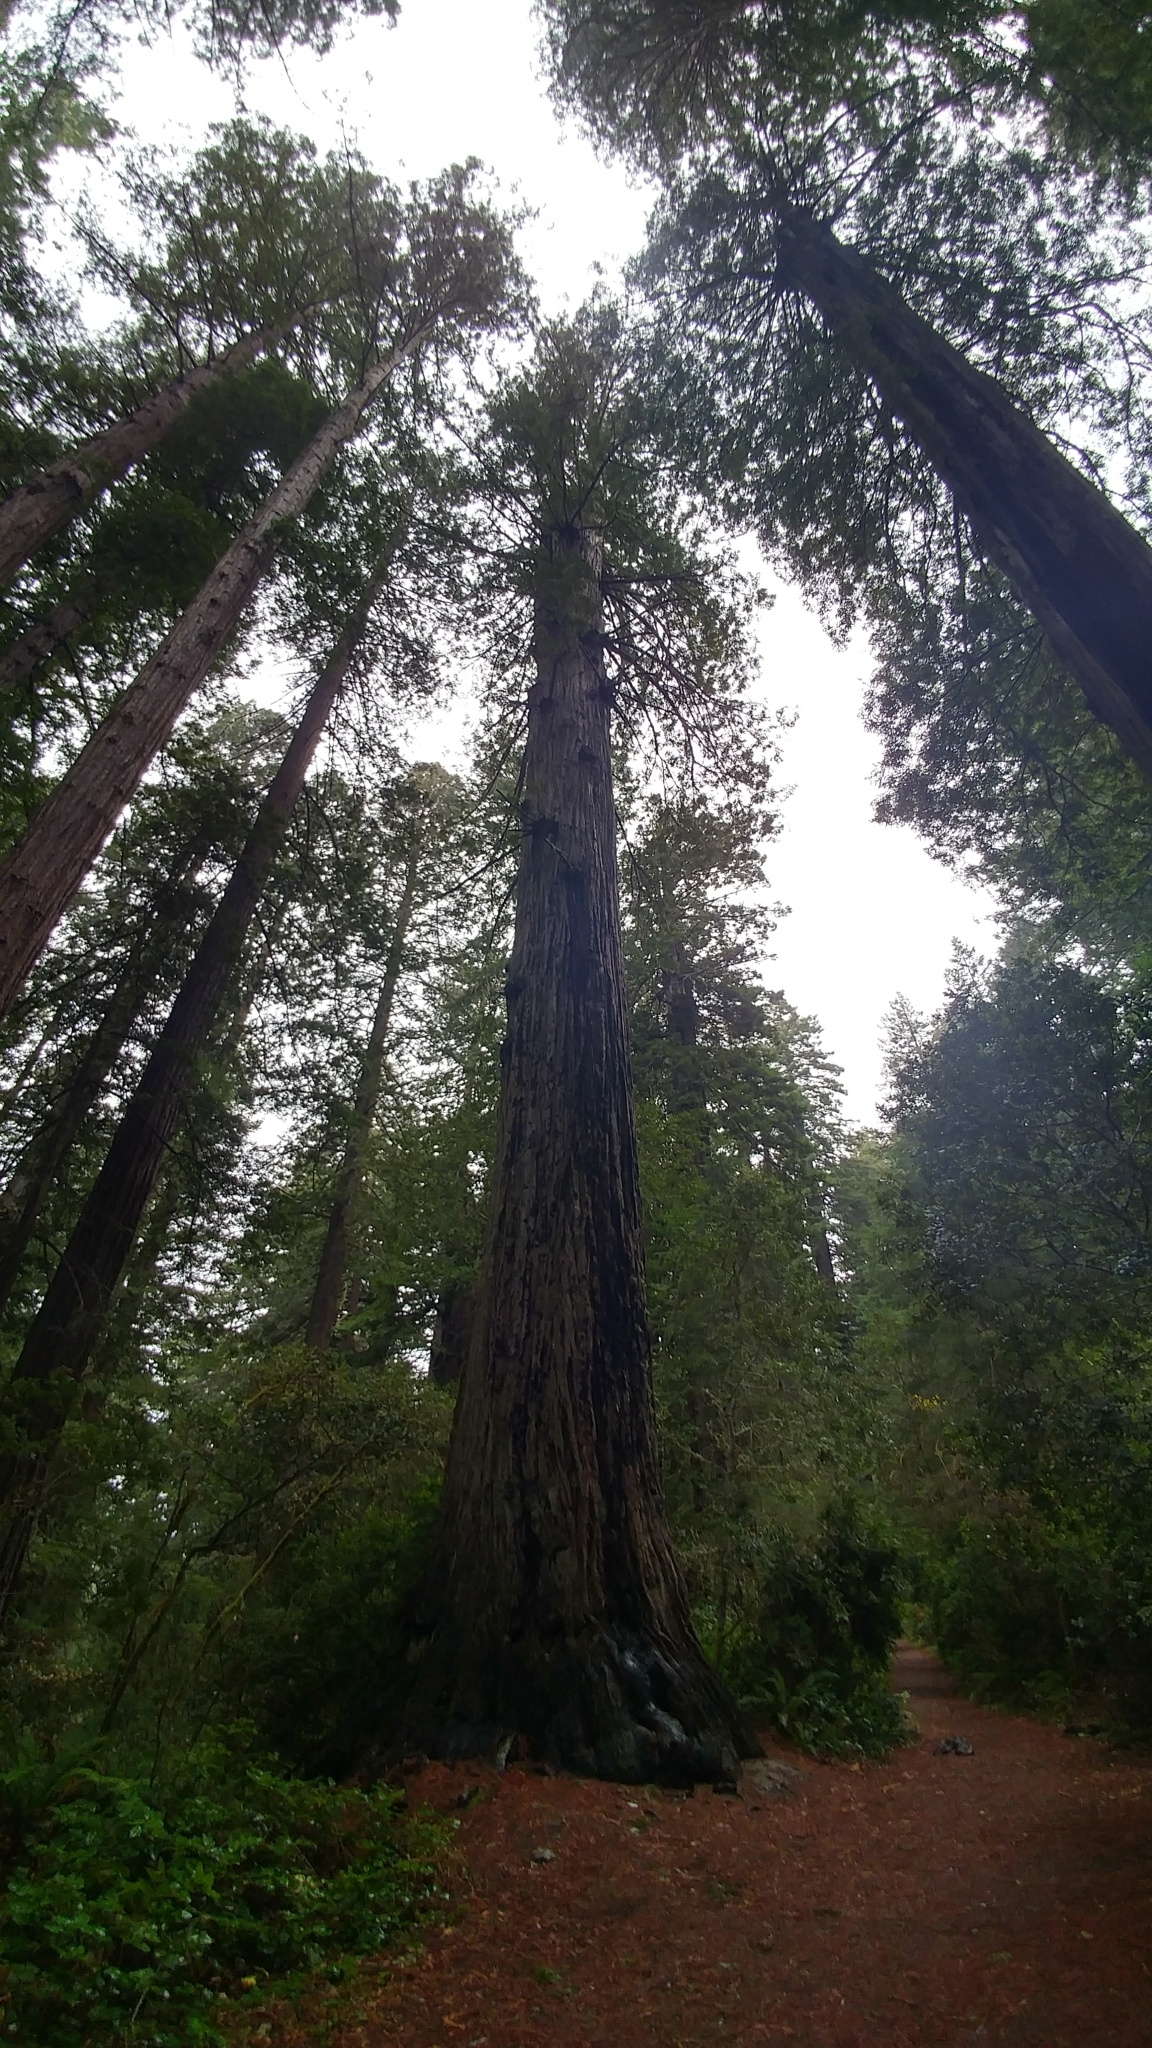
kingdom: Plantae
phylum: Tracheophyta
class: Pinopsida
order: Pinales
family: Cupressaceae
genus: Sequoia
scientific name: Sequoia sempervirens
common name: Coast redwood
